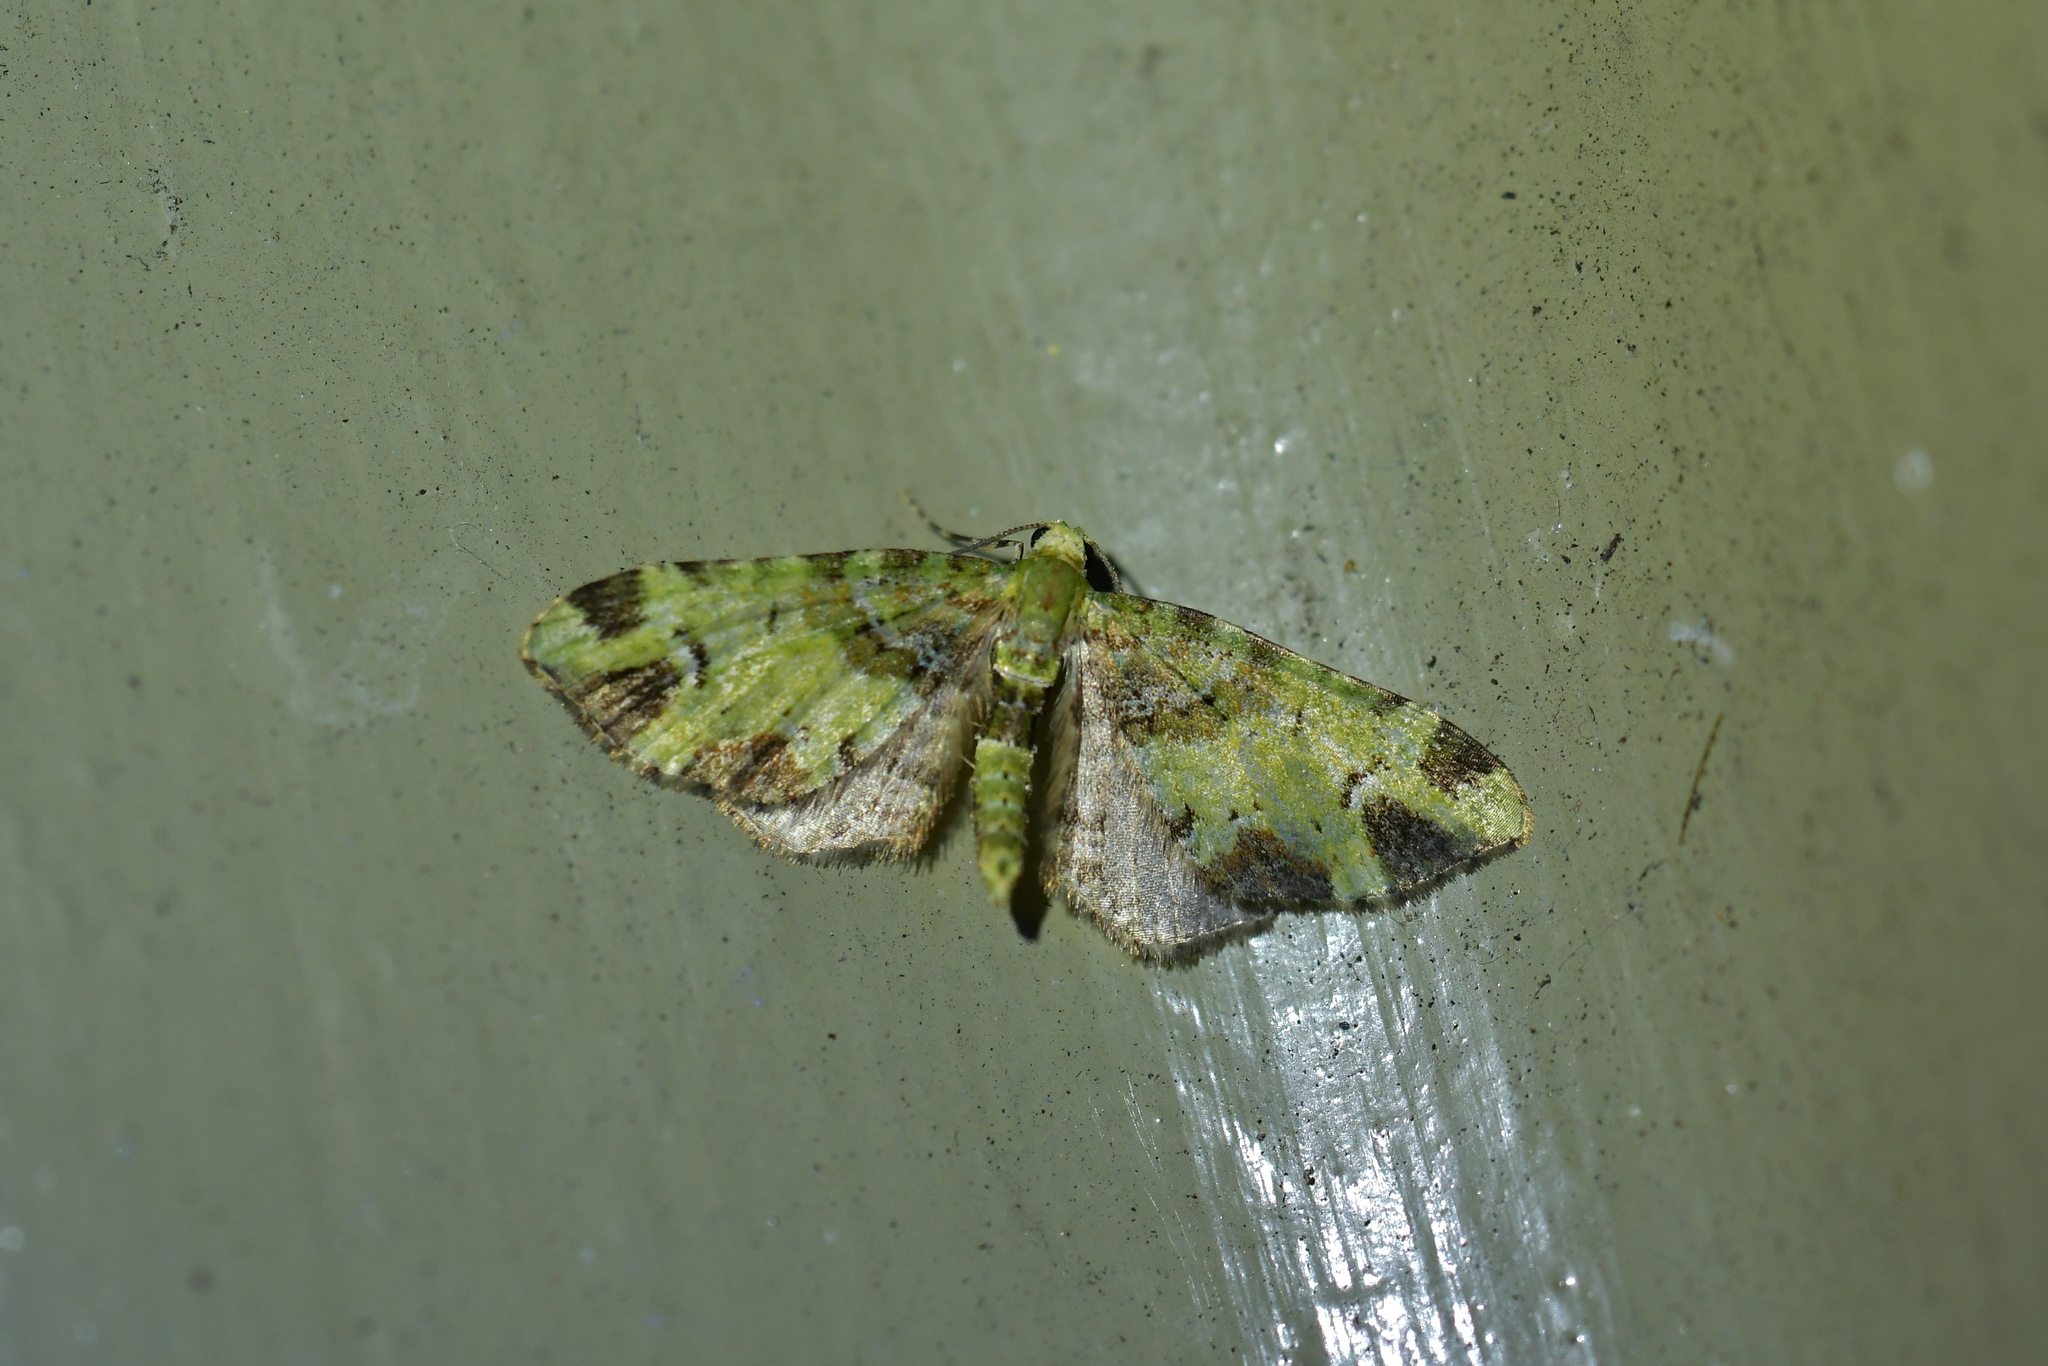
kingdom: Animalia
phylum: Arthropoda
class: Insecta
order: Lepidoptera
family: Geometridae
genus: Pasiphila
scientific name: Pasiphila malachita
